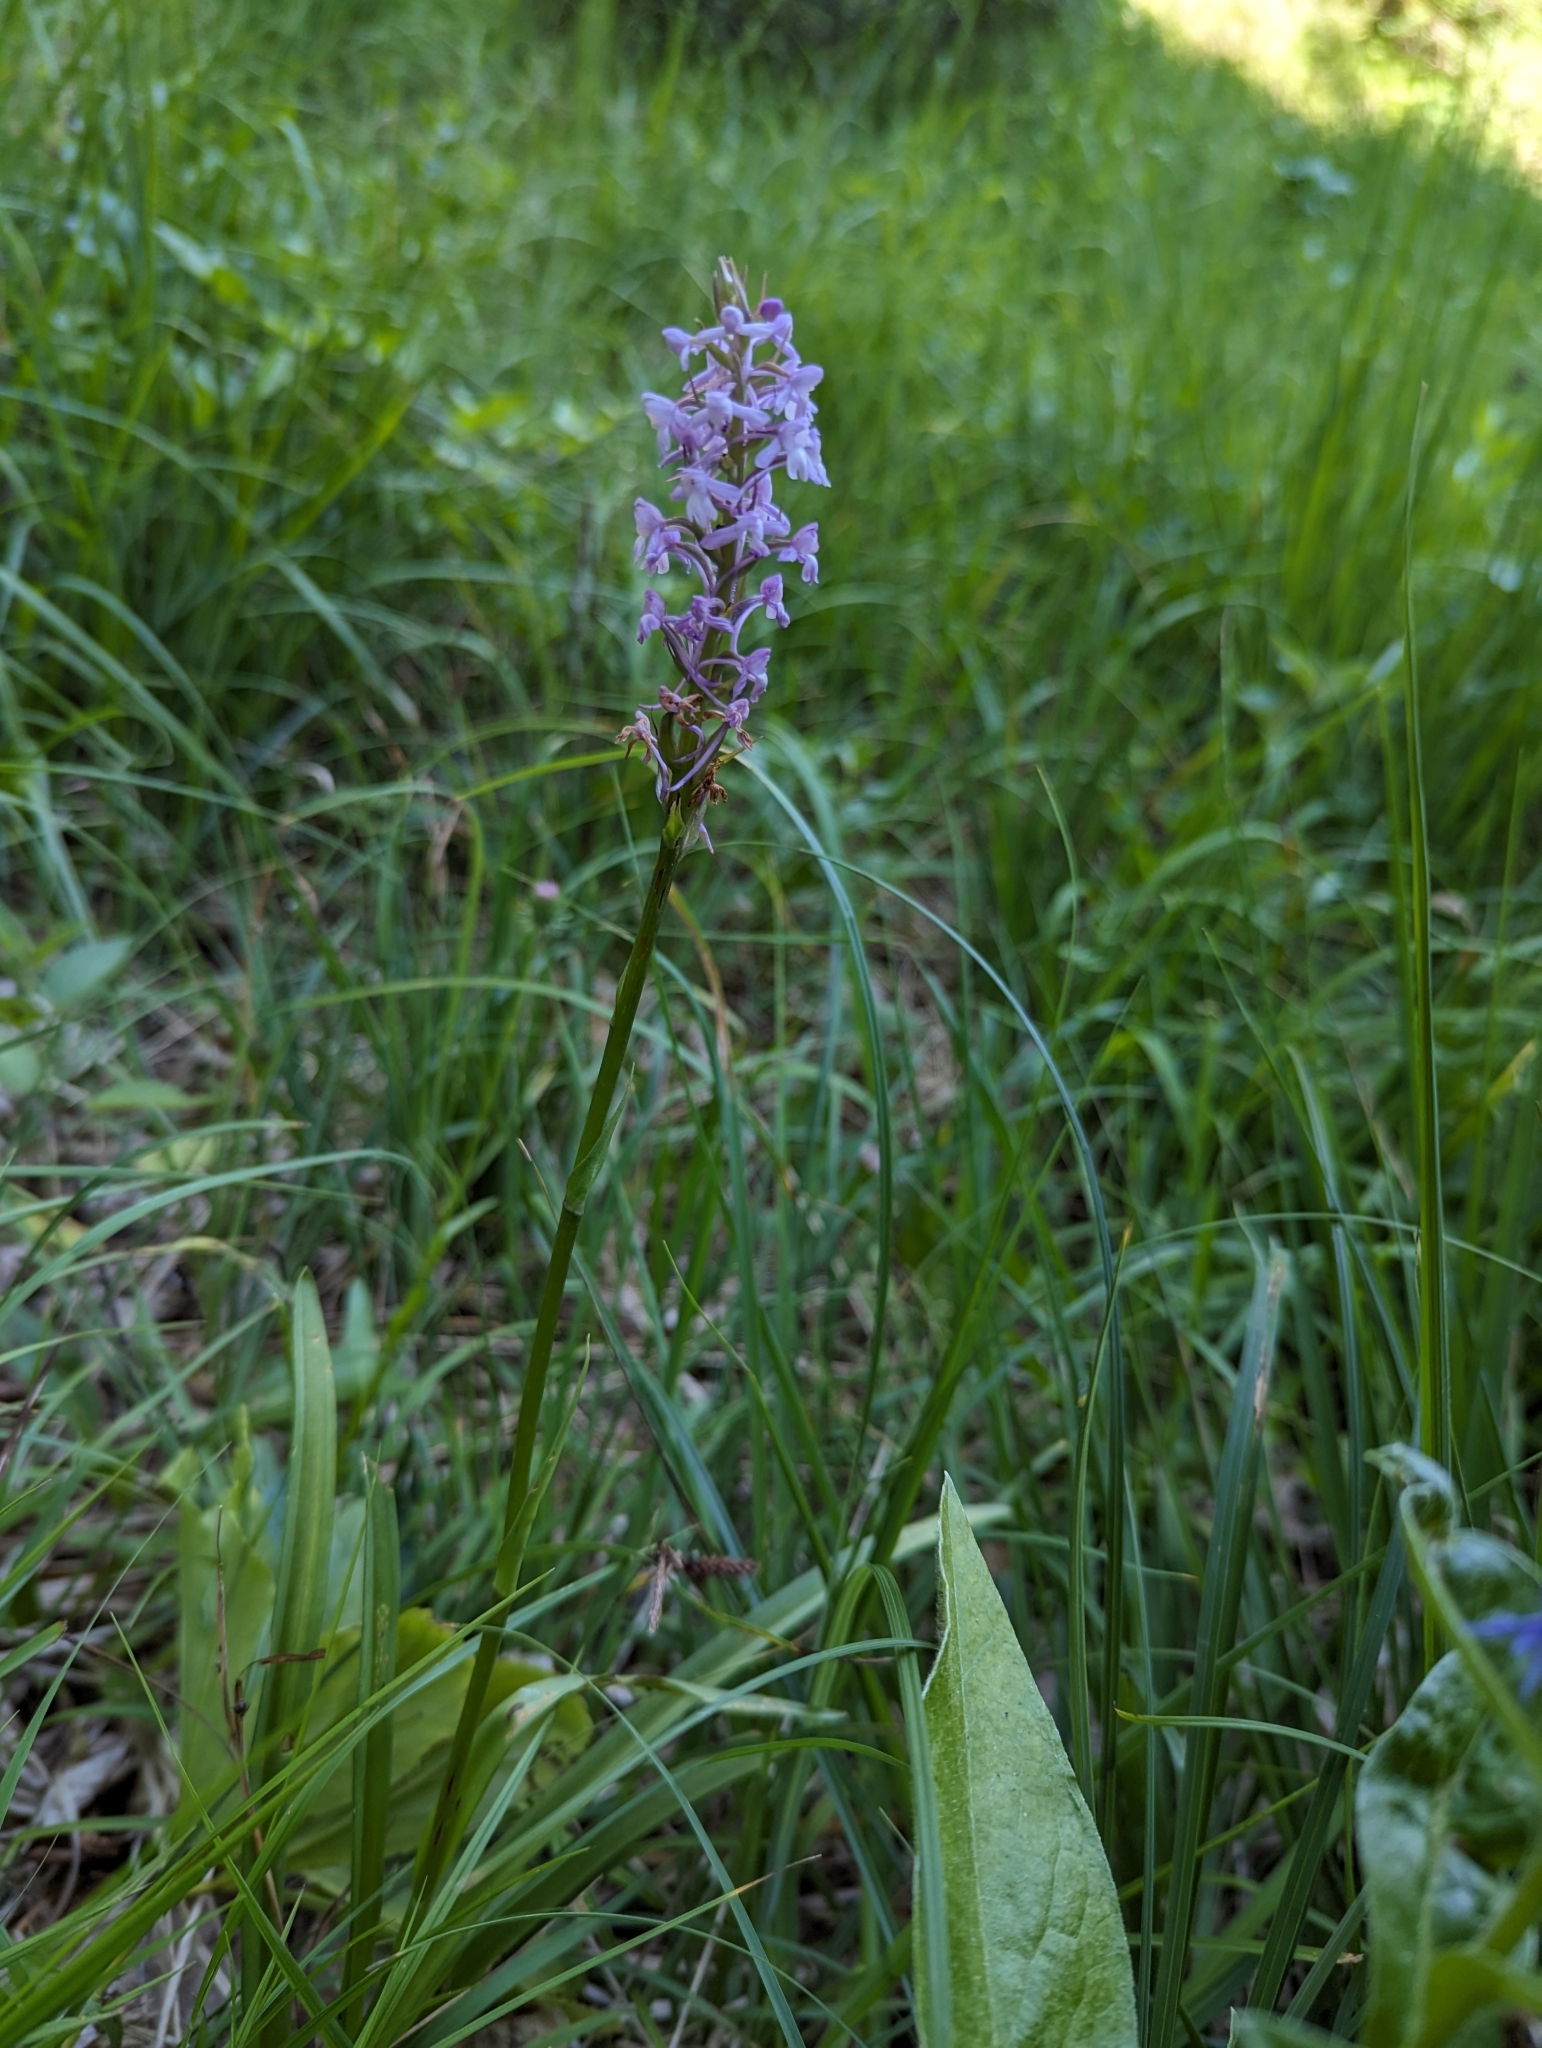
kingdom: Plantae
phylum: Tracheophyta
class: Liliopsida
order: Asparagales
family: Orchidaceae
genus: Gymnadenia
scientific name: Gymnadenia conopsea
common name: Fragrant orchid
